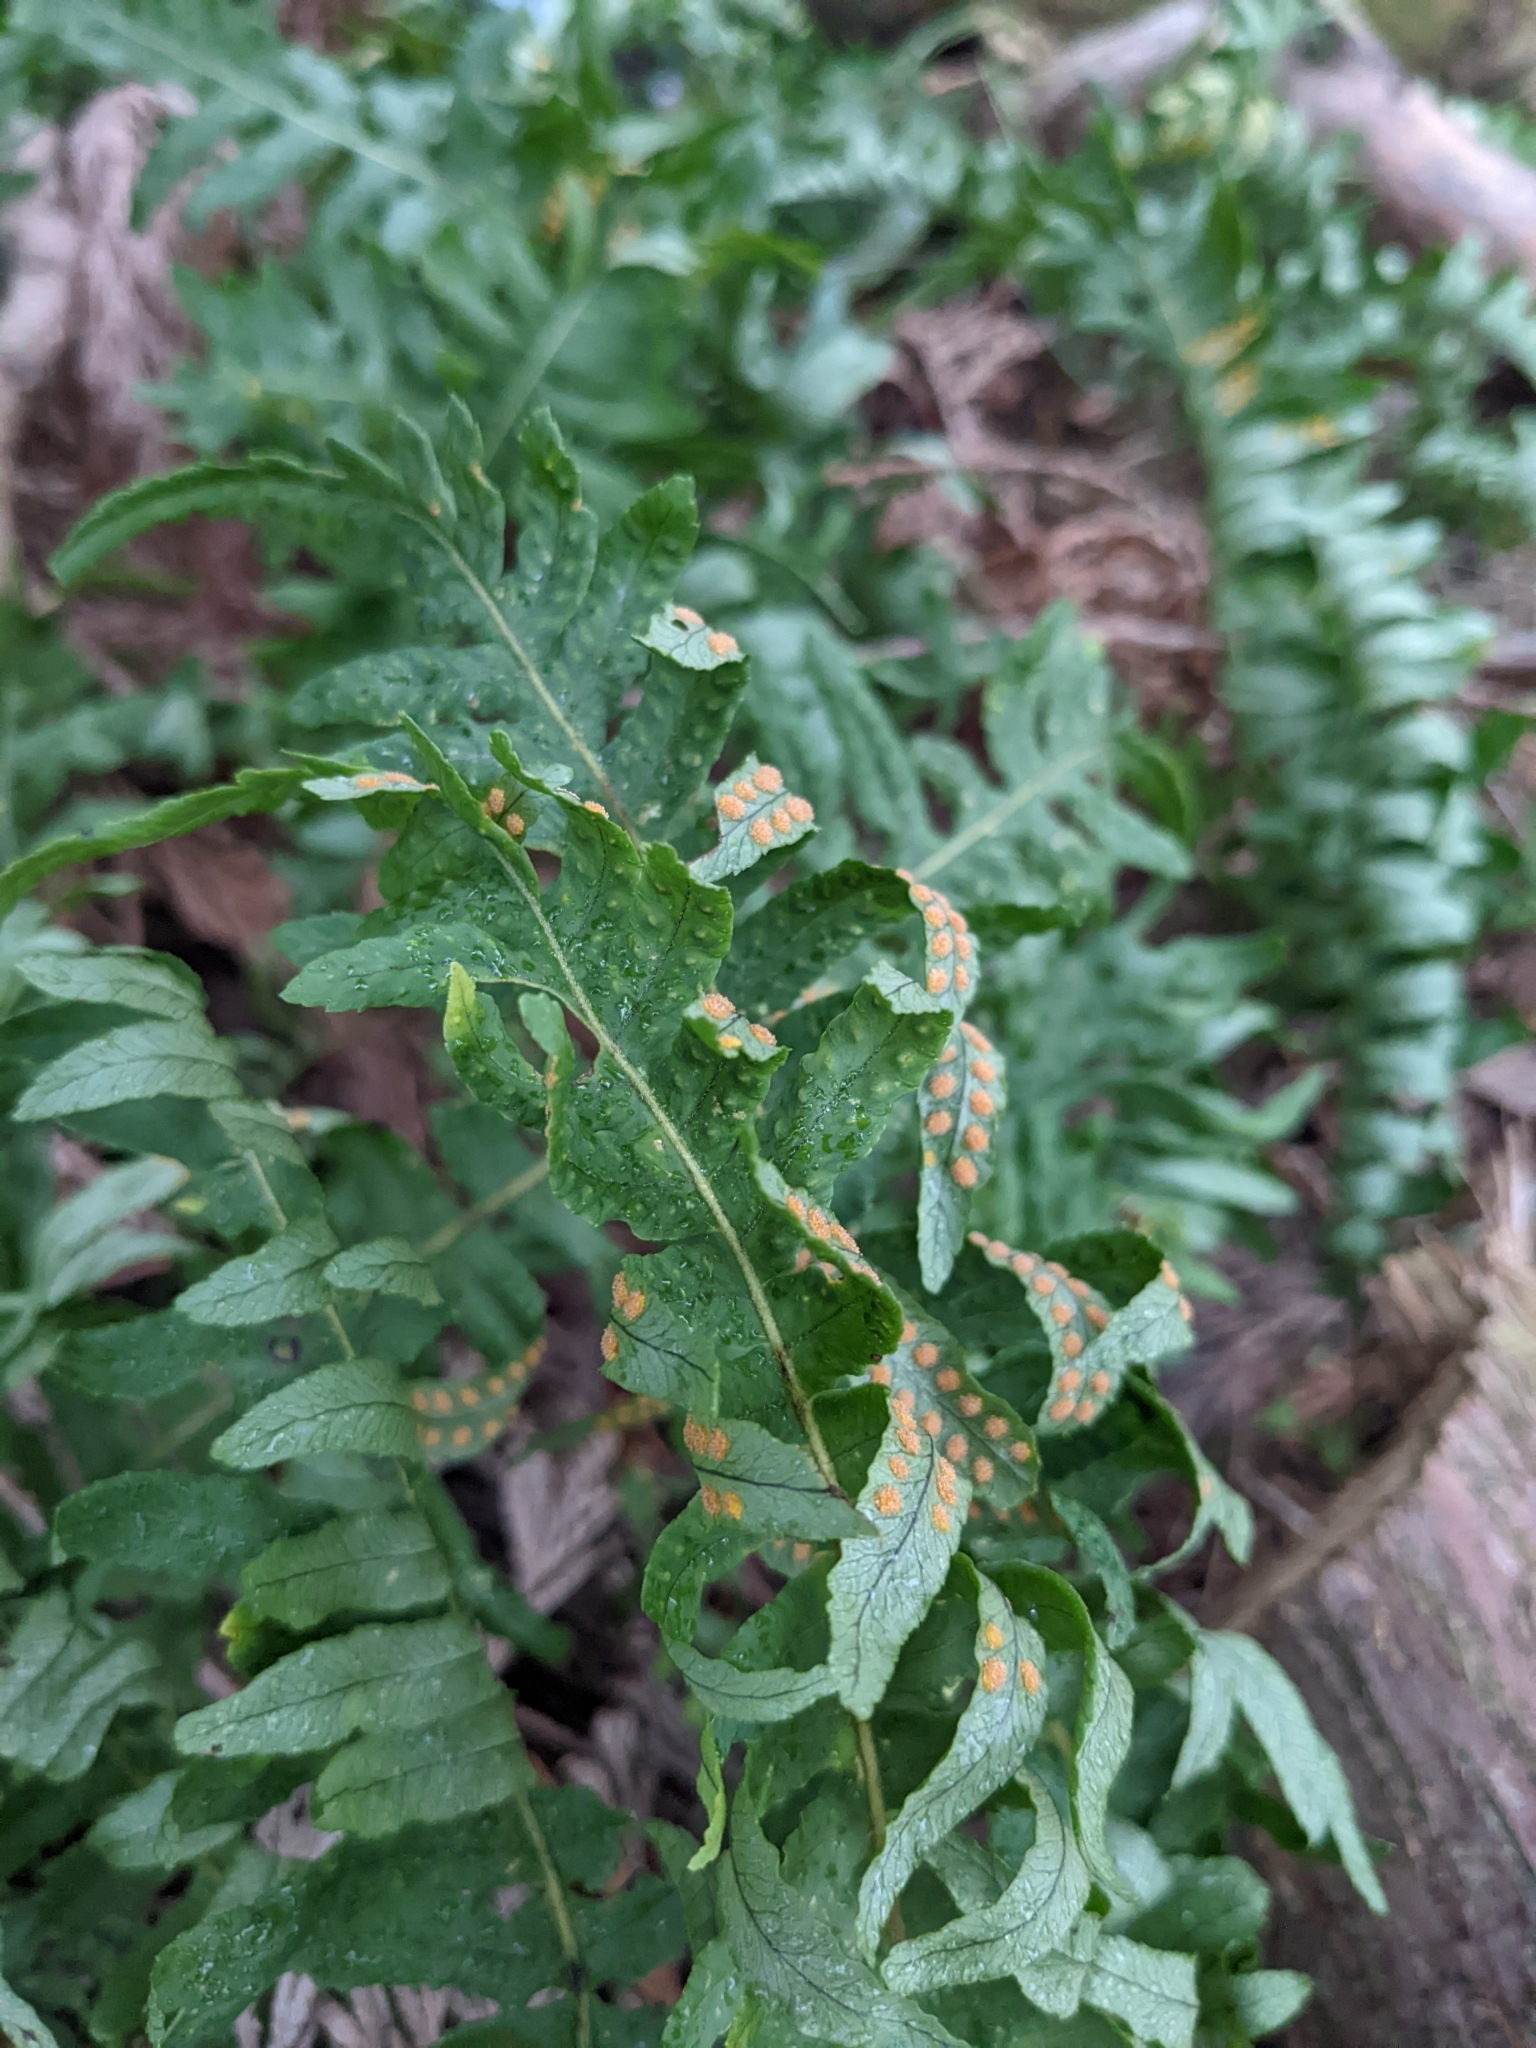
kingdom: Plantae
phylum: Tracheophyta
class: Polypodiopsida
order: Polypodiales
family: Polypodiaceae
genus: Polypodium
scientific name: Polypodium glycyrrhiza
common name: Licorice fern
